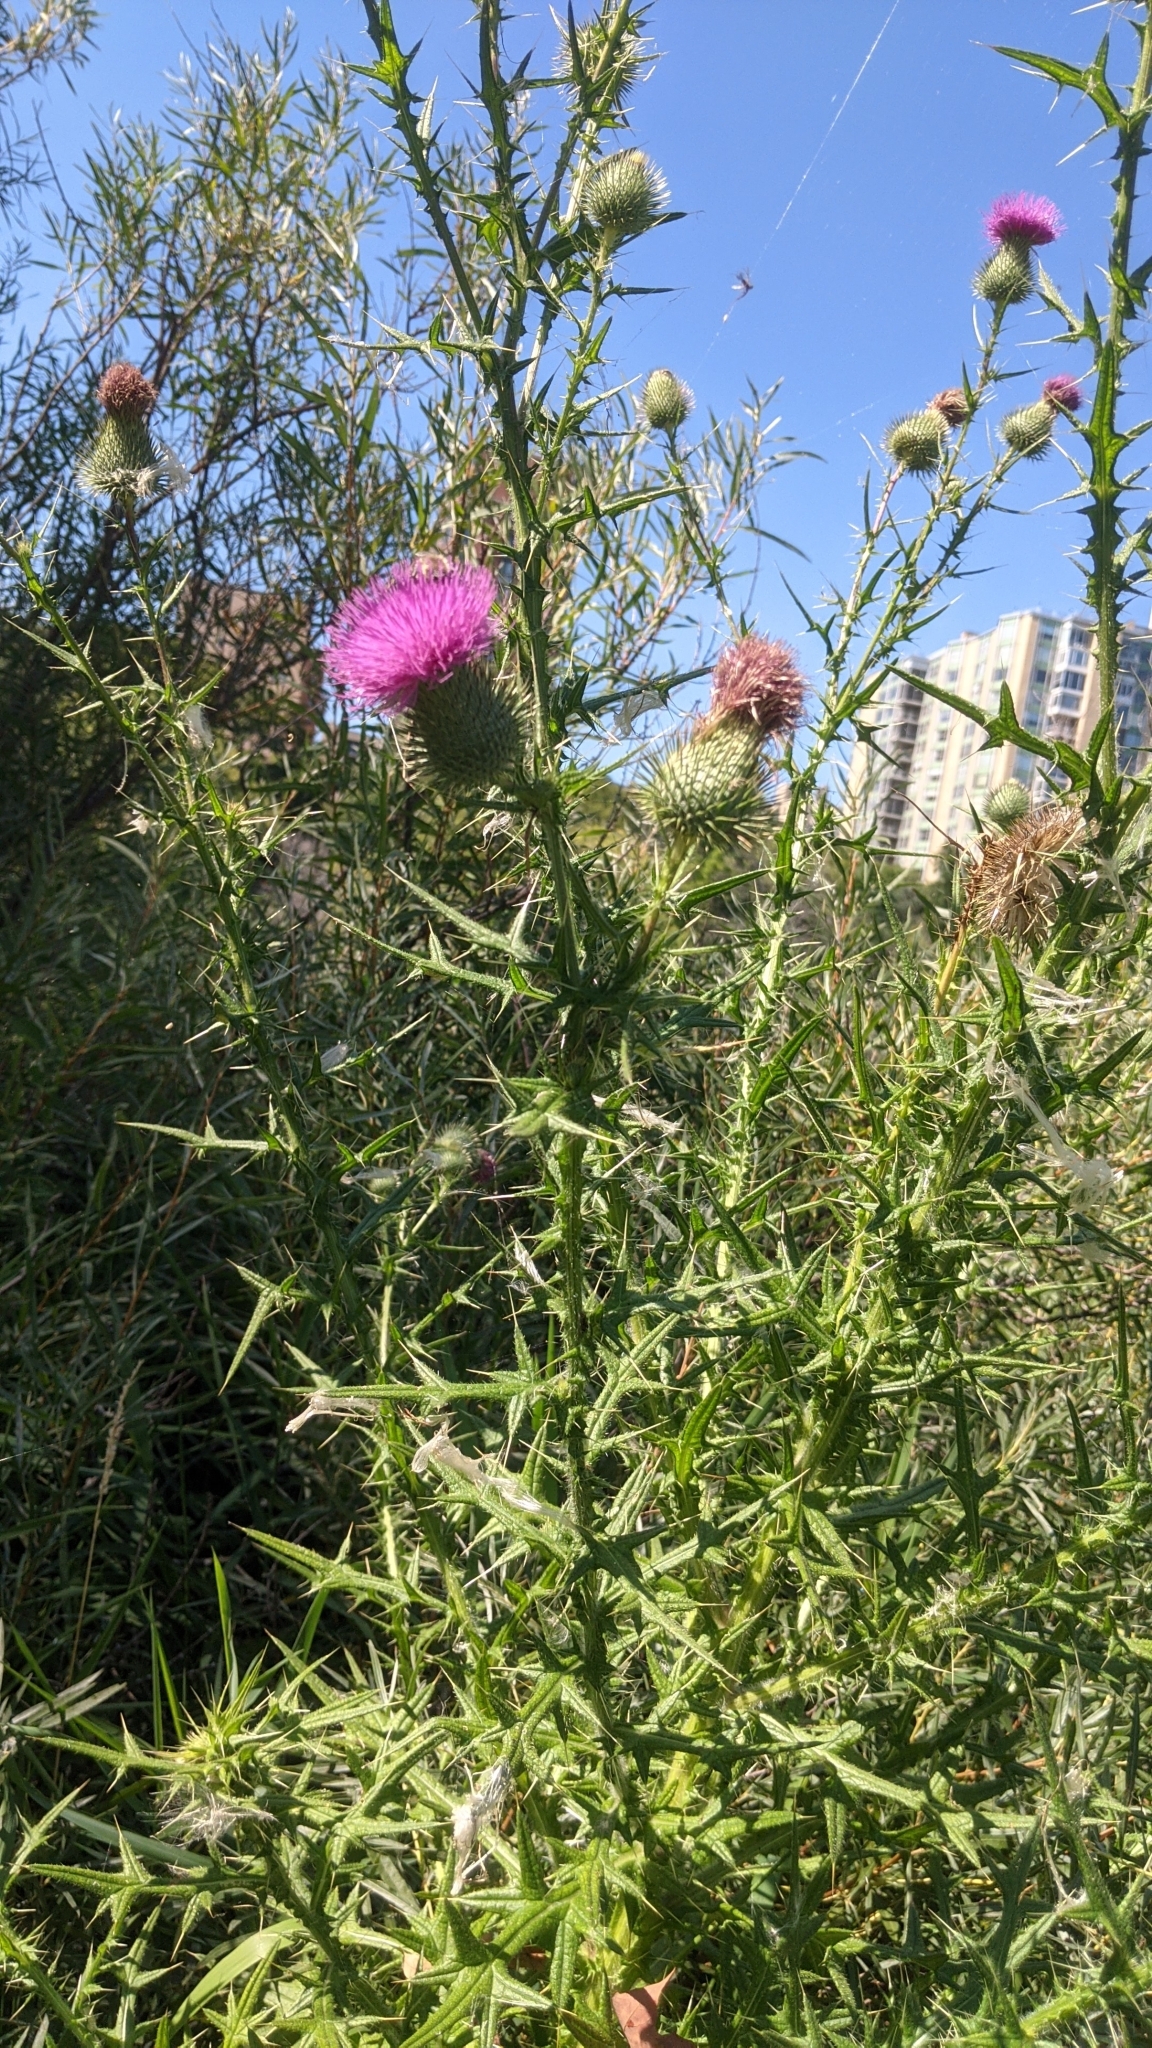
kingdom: Plantae
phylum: Tracheophyta
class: Magnoliopsida
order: Asterales
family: Asteraceae
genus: Cirsium
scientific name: Cirsium vulgare
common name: Bull thistle
